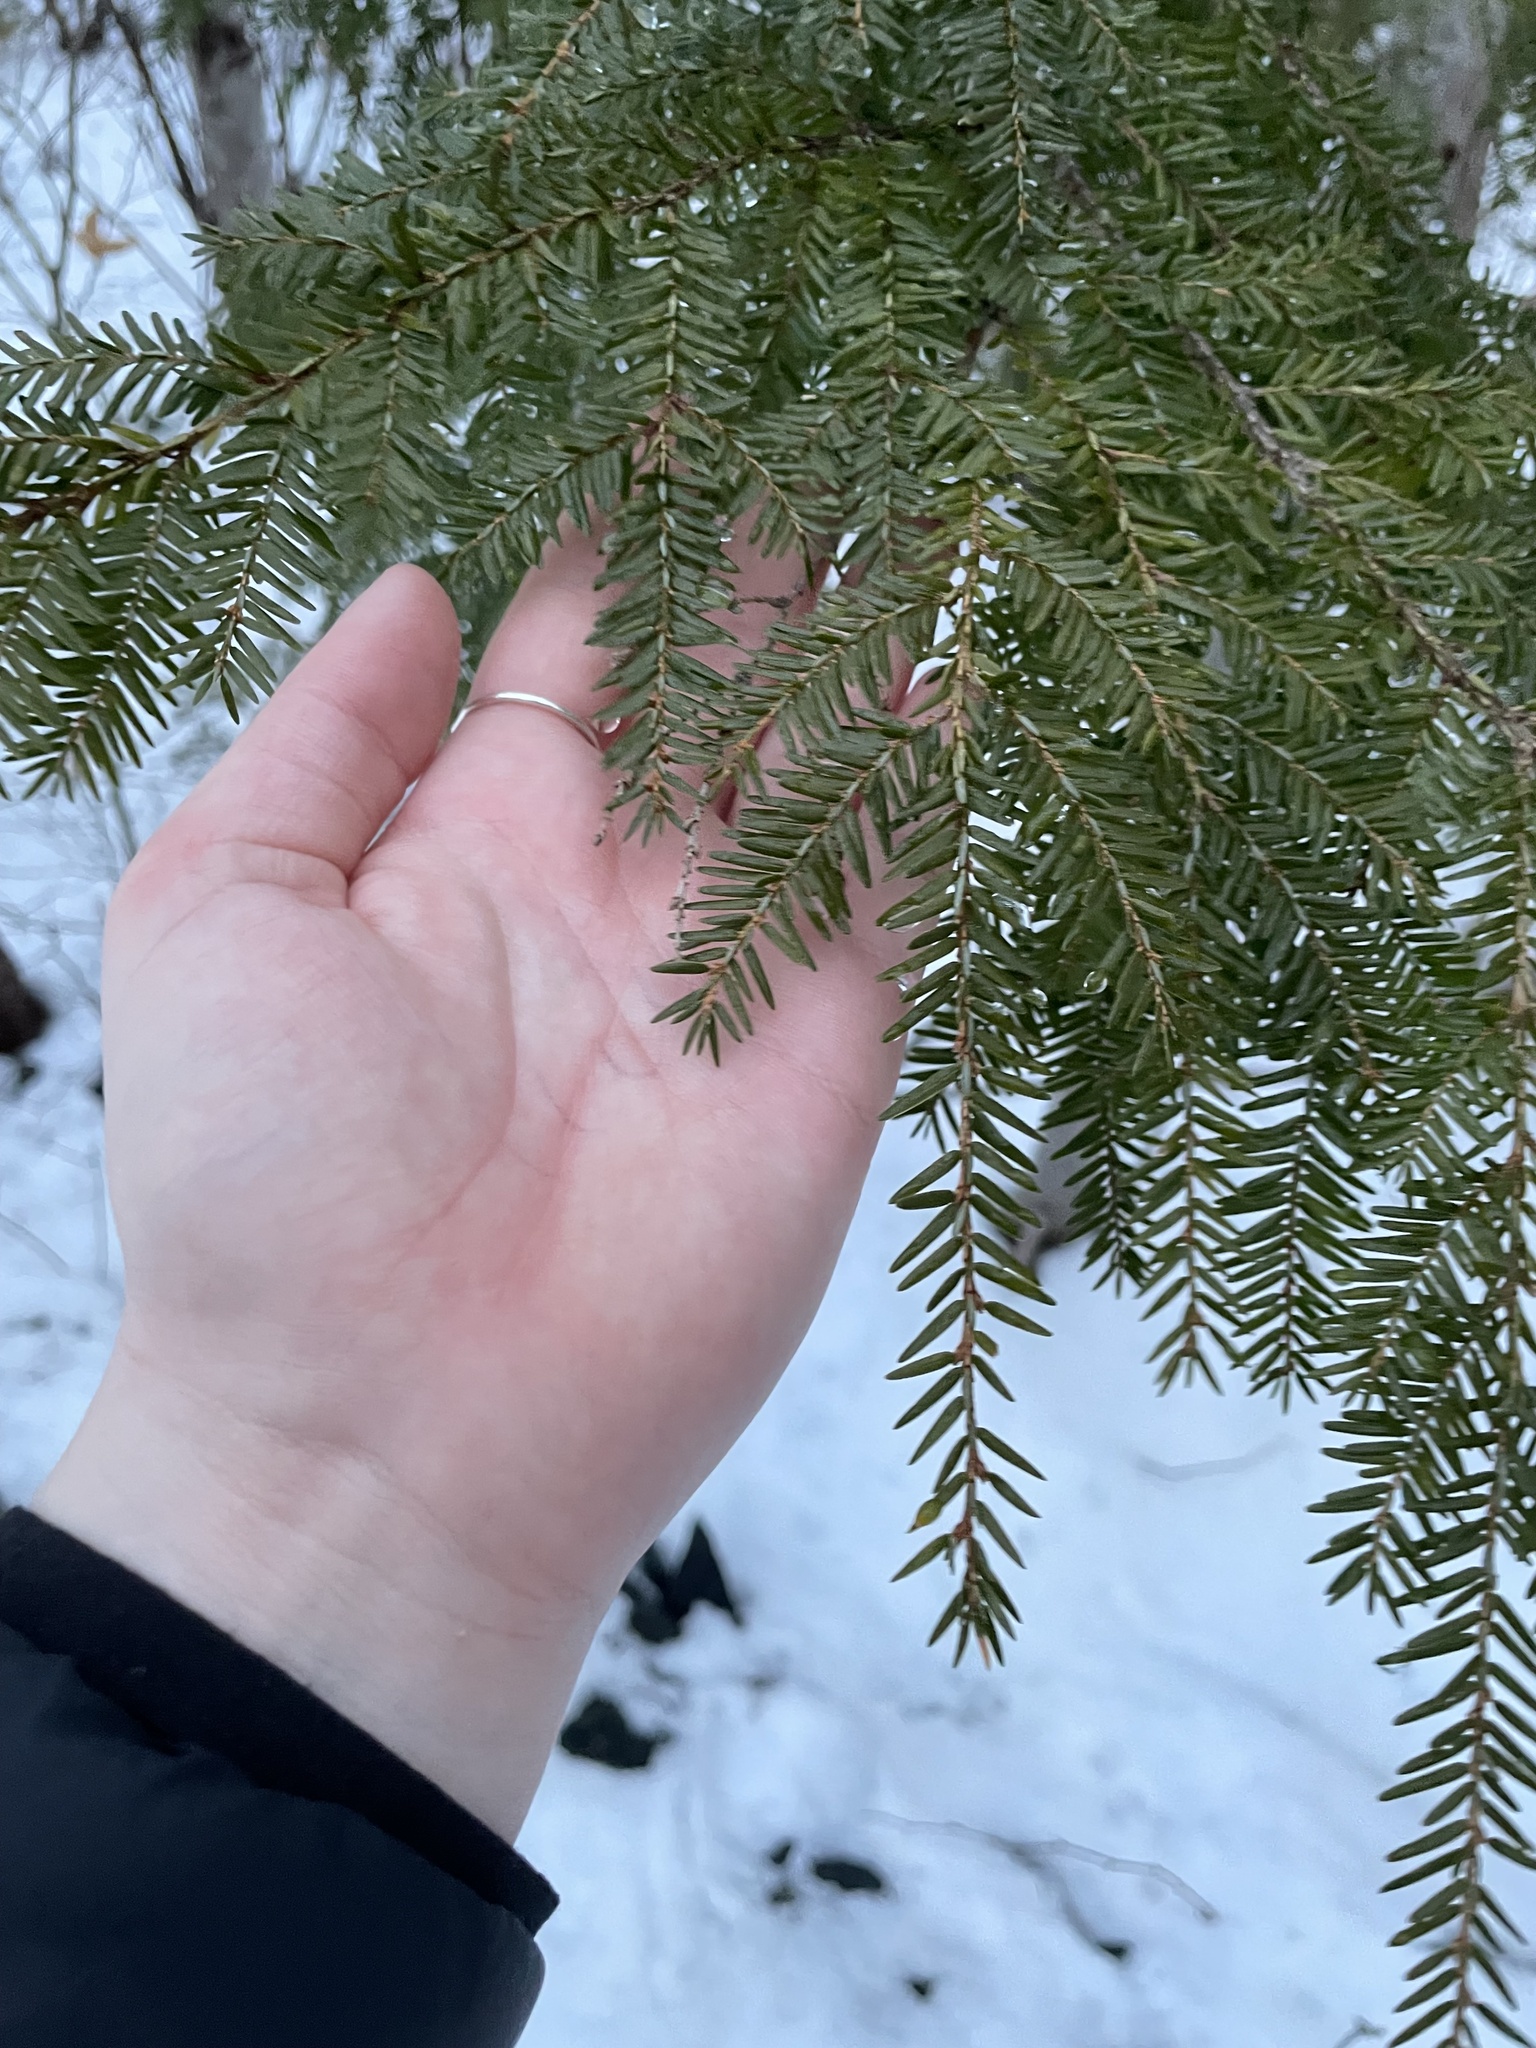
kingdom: Plantae
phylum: Tracheophyta
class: Pinopsida
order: Pinales
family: Pinaceae
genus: Tsuga
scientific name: Tsuga canadensis
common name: Eastern hemlock
